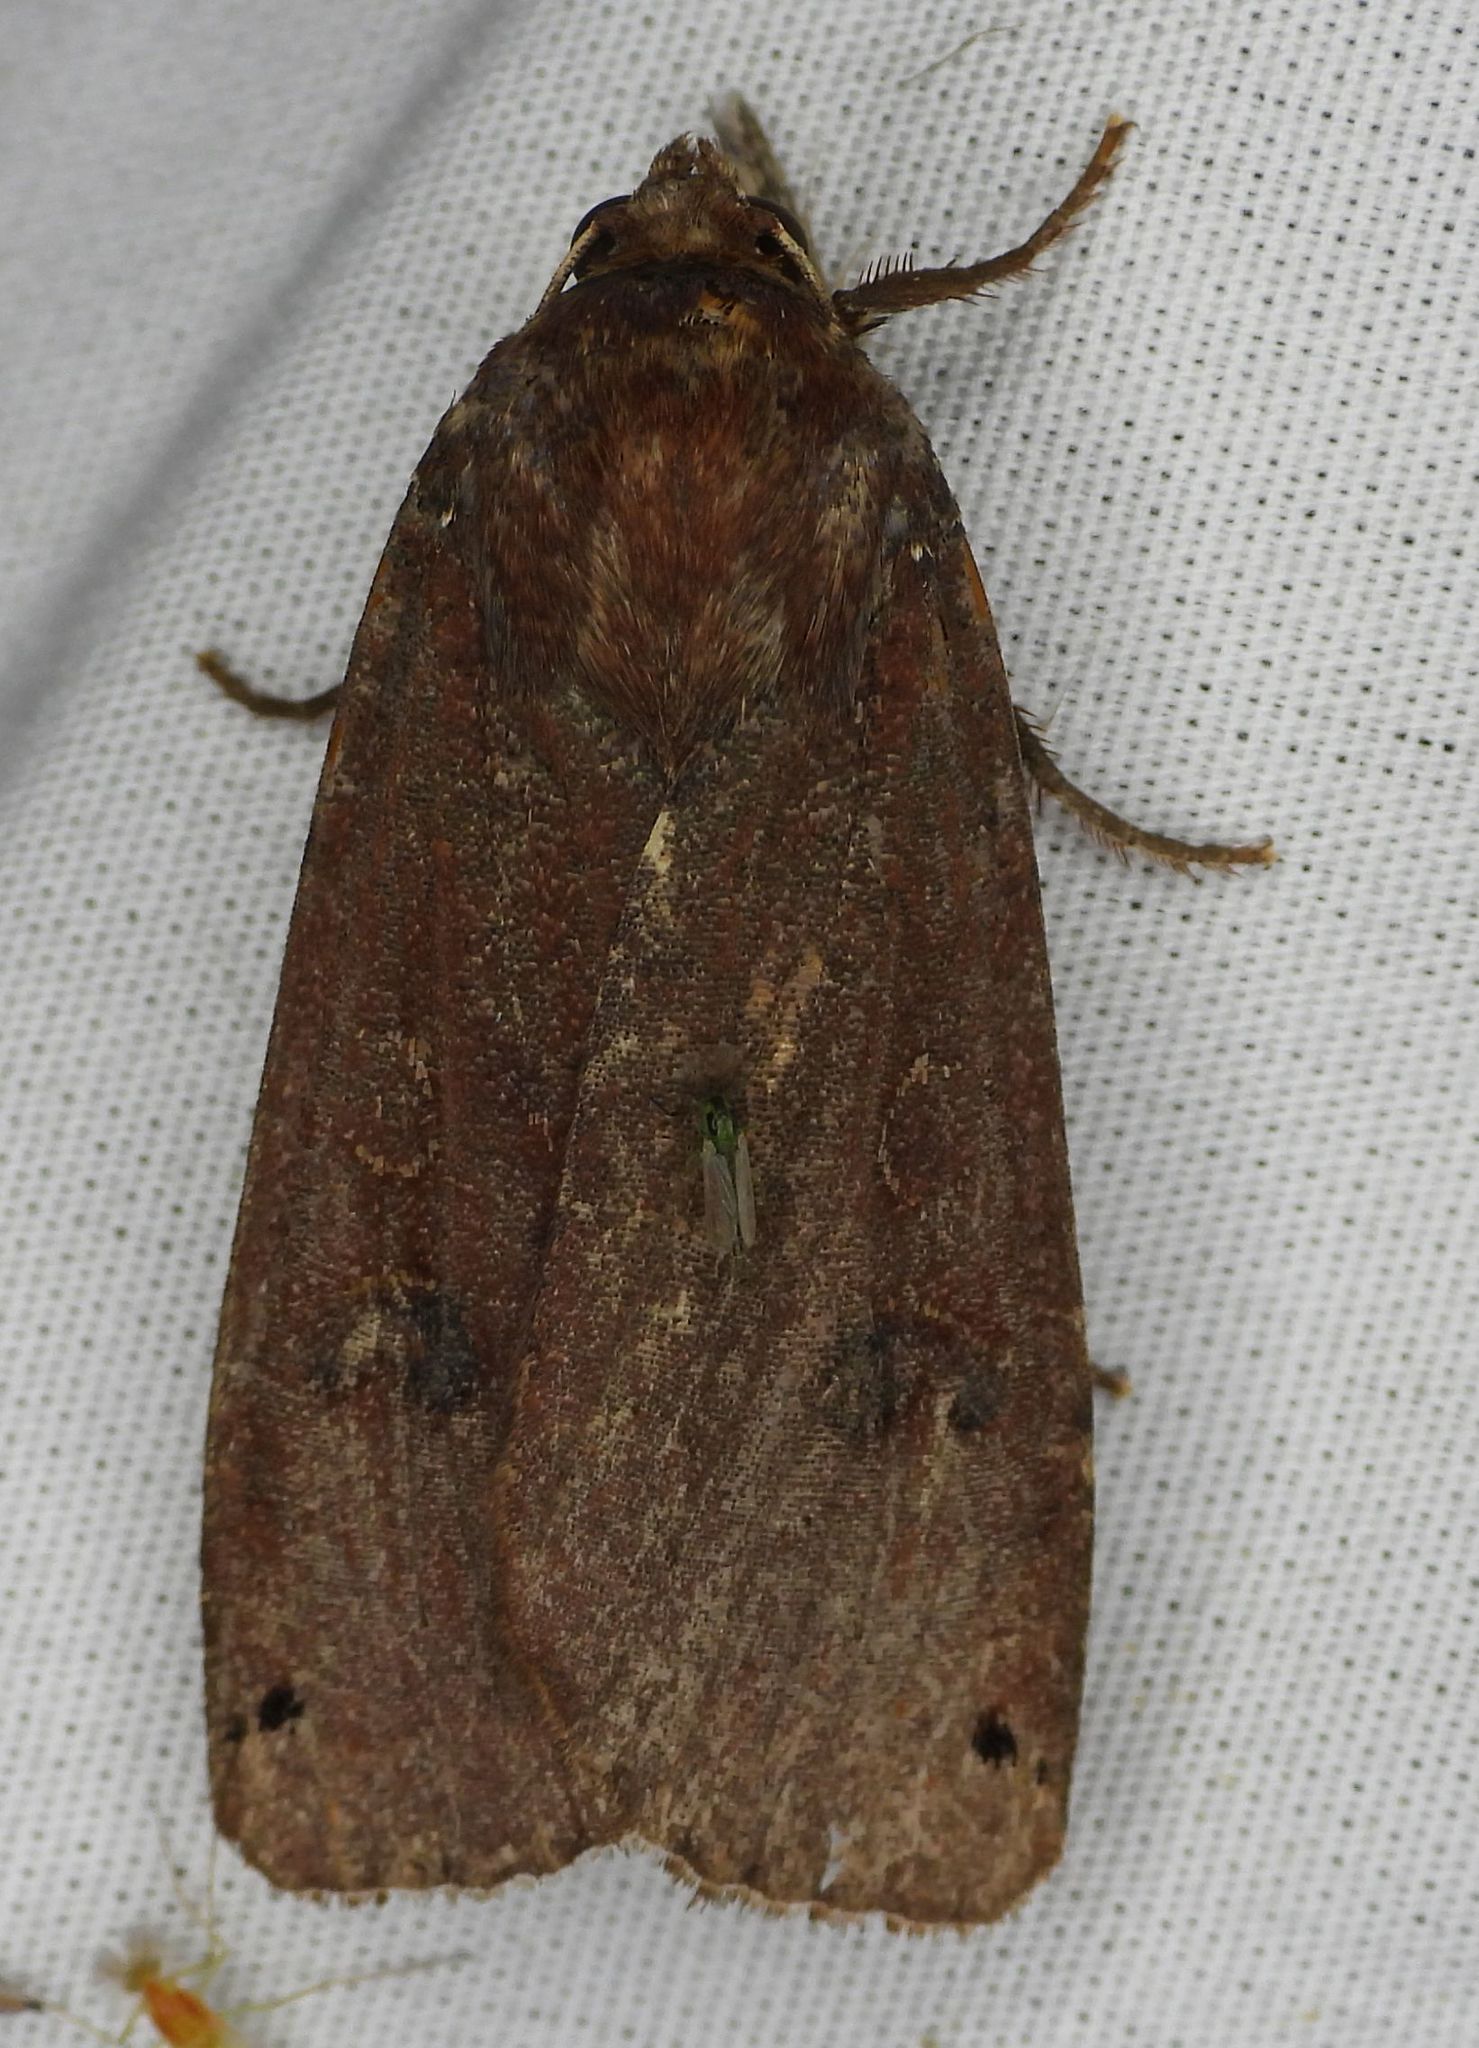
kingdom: Animalia
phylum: Arthropoda
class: Insecta
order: Lepidoptera
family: Noctuidae
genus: Noctua
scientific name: Noctua pronuba
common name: Large yellow underwing
